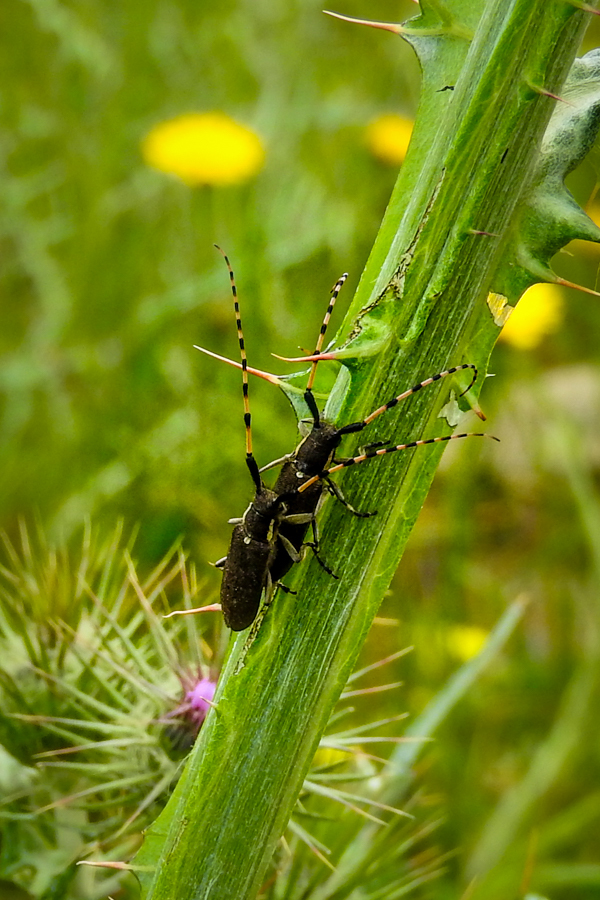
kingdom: Animalia
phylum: Arthropoda
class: Insecta
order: Coleoptera
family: Cerambycidae
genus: Agapanthia
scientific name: Agapanthia annularis
